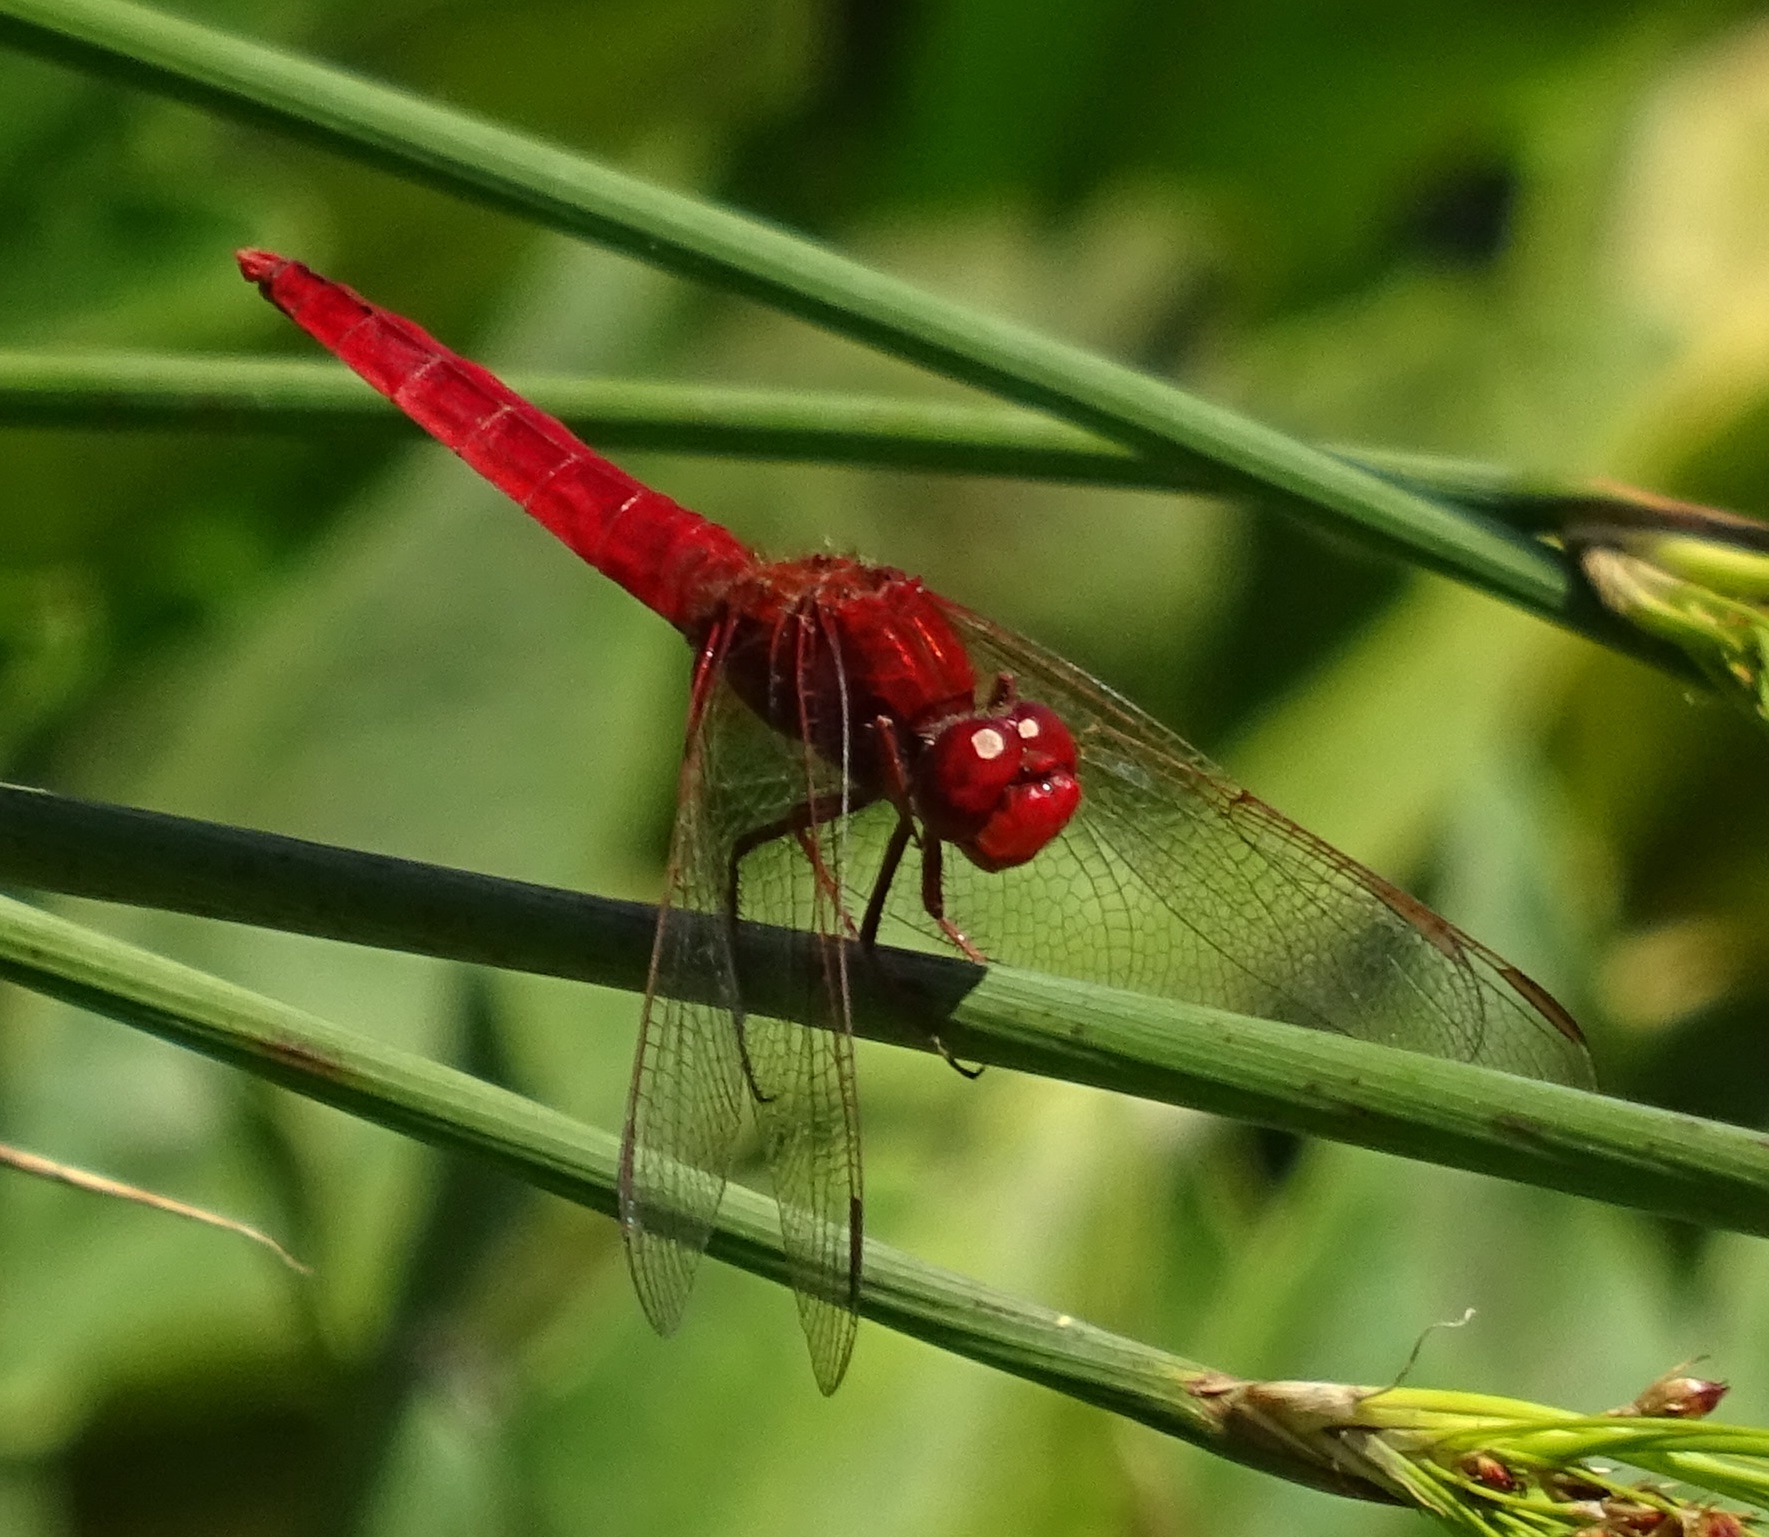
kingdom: Animalia
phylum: Arthropoda
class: Insecta
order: Odonata
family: Libellulidae
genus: Crocothemis
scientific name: Crocothemis erythraea
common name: Scarlet dragonfly
